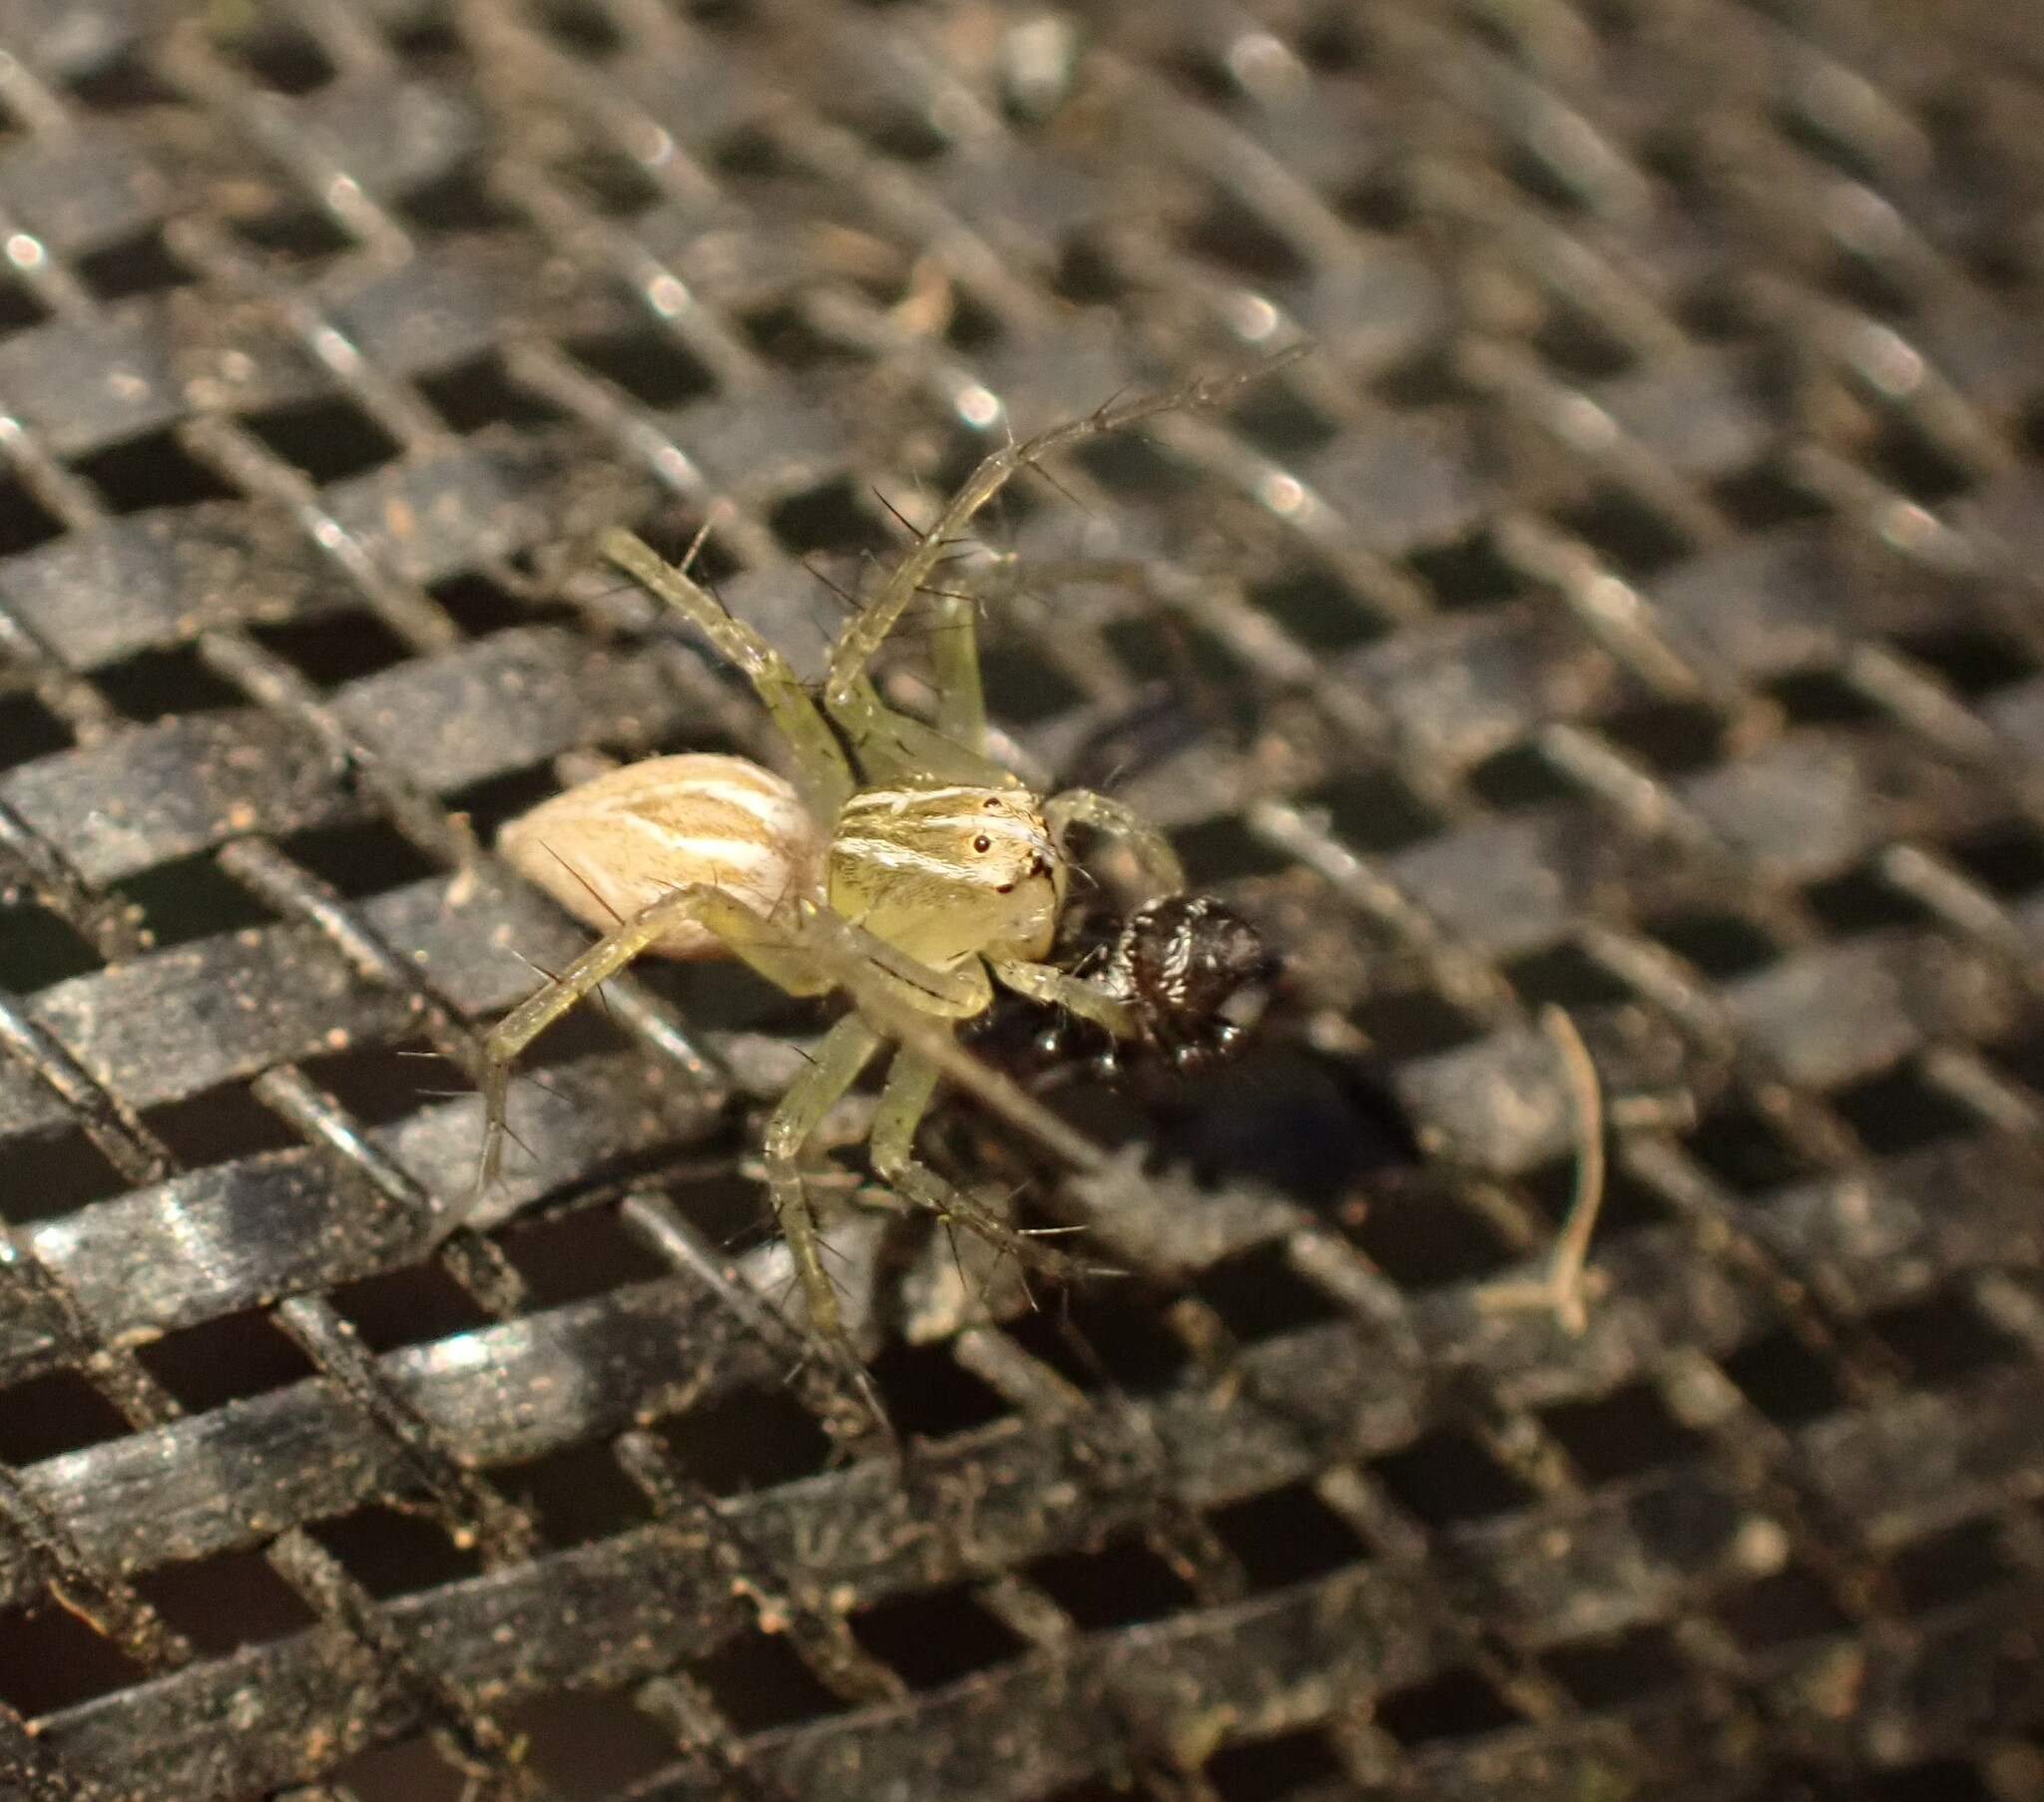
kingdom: Animalia
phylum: Arthropoda
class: Arachnida
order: Araneae
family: Oxyopidae
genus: Oxyopes
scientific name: Oxyopes salticus
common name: Lynx spiders
